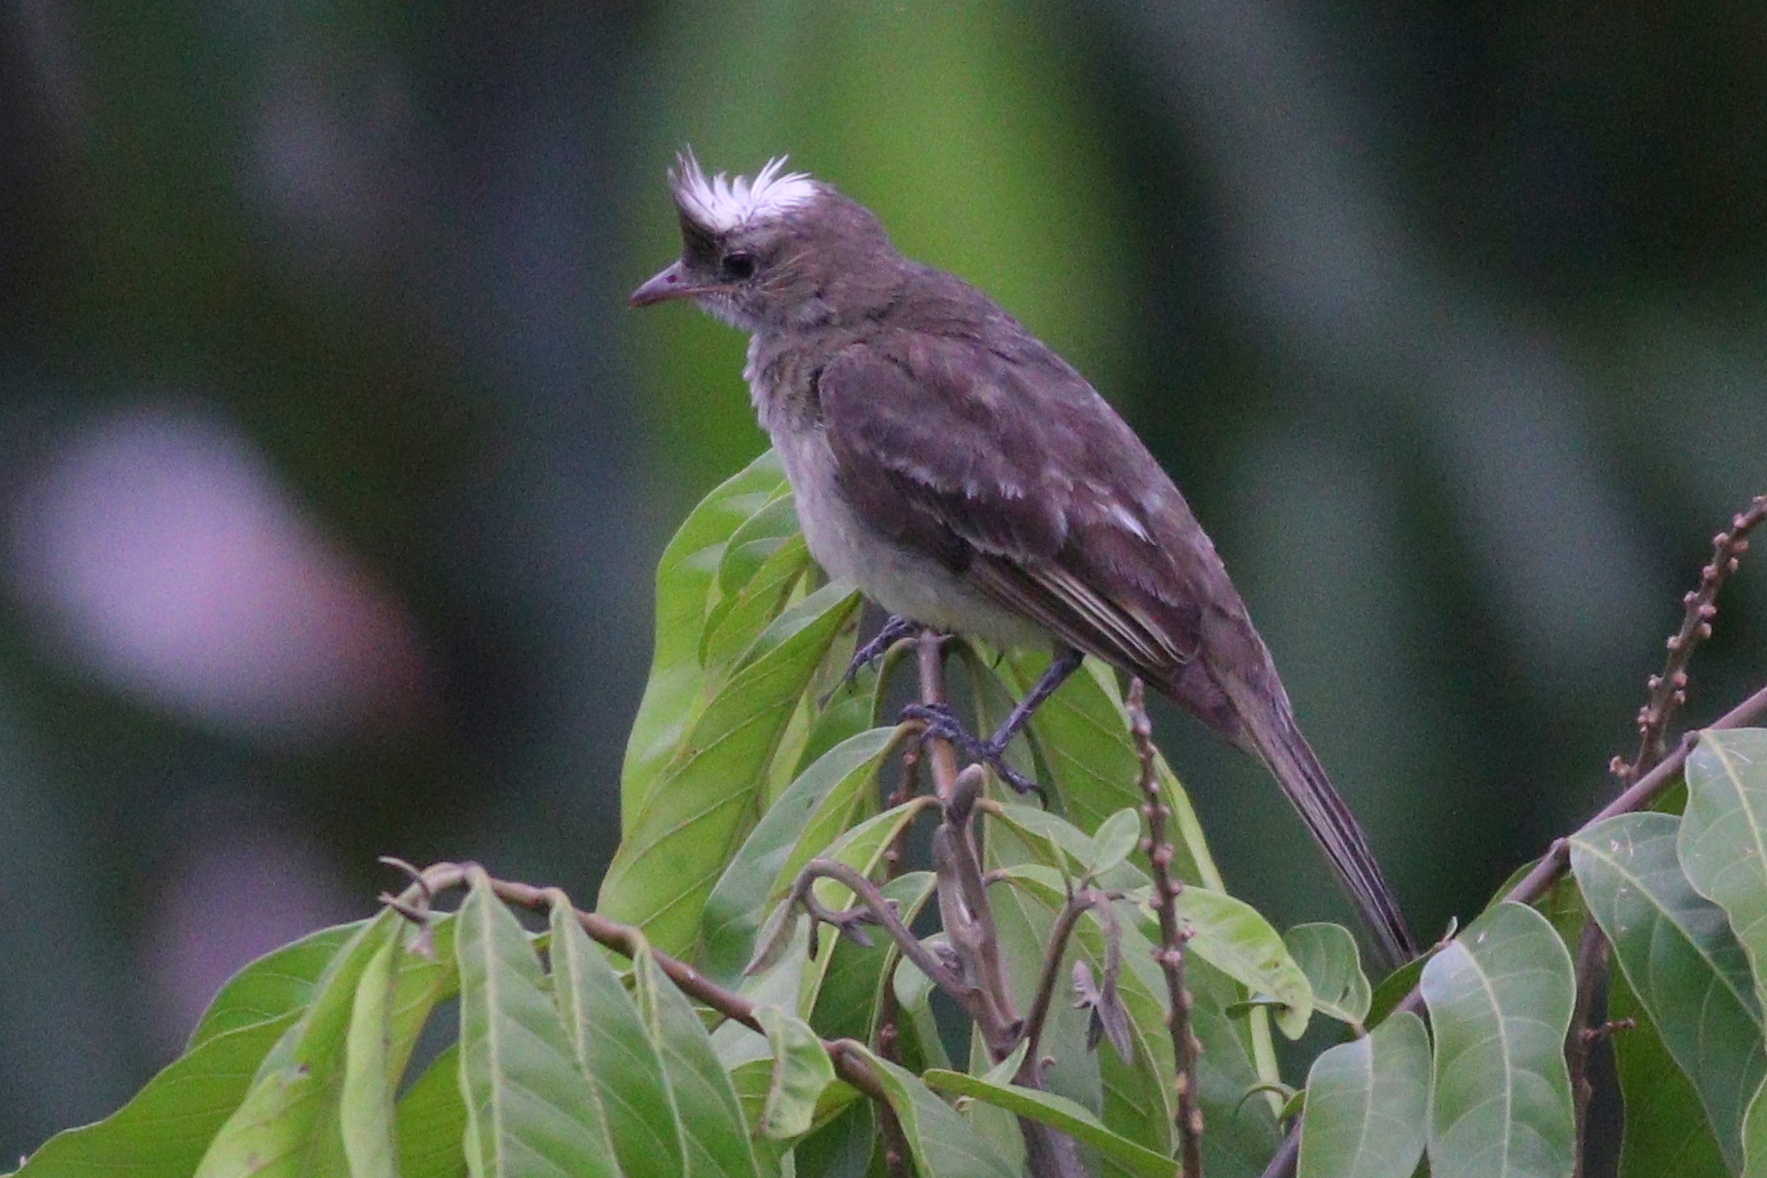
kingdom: Animalia
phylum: Chordata
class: Aves
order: Passeriformes
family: Tyrannidae
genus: Elaenia
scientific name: Elaenia gigas
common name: Mottle-backed elaenia
